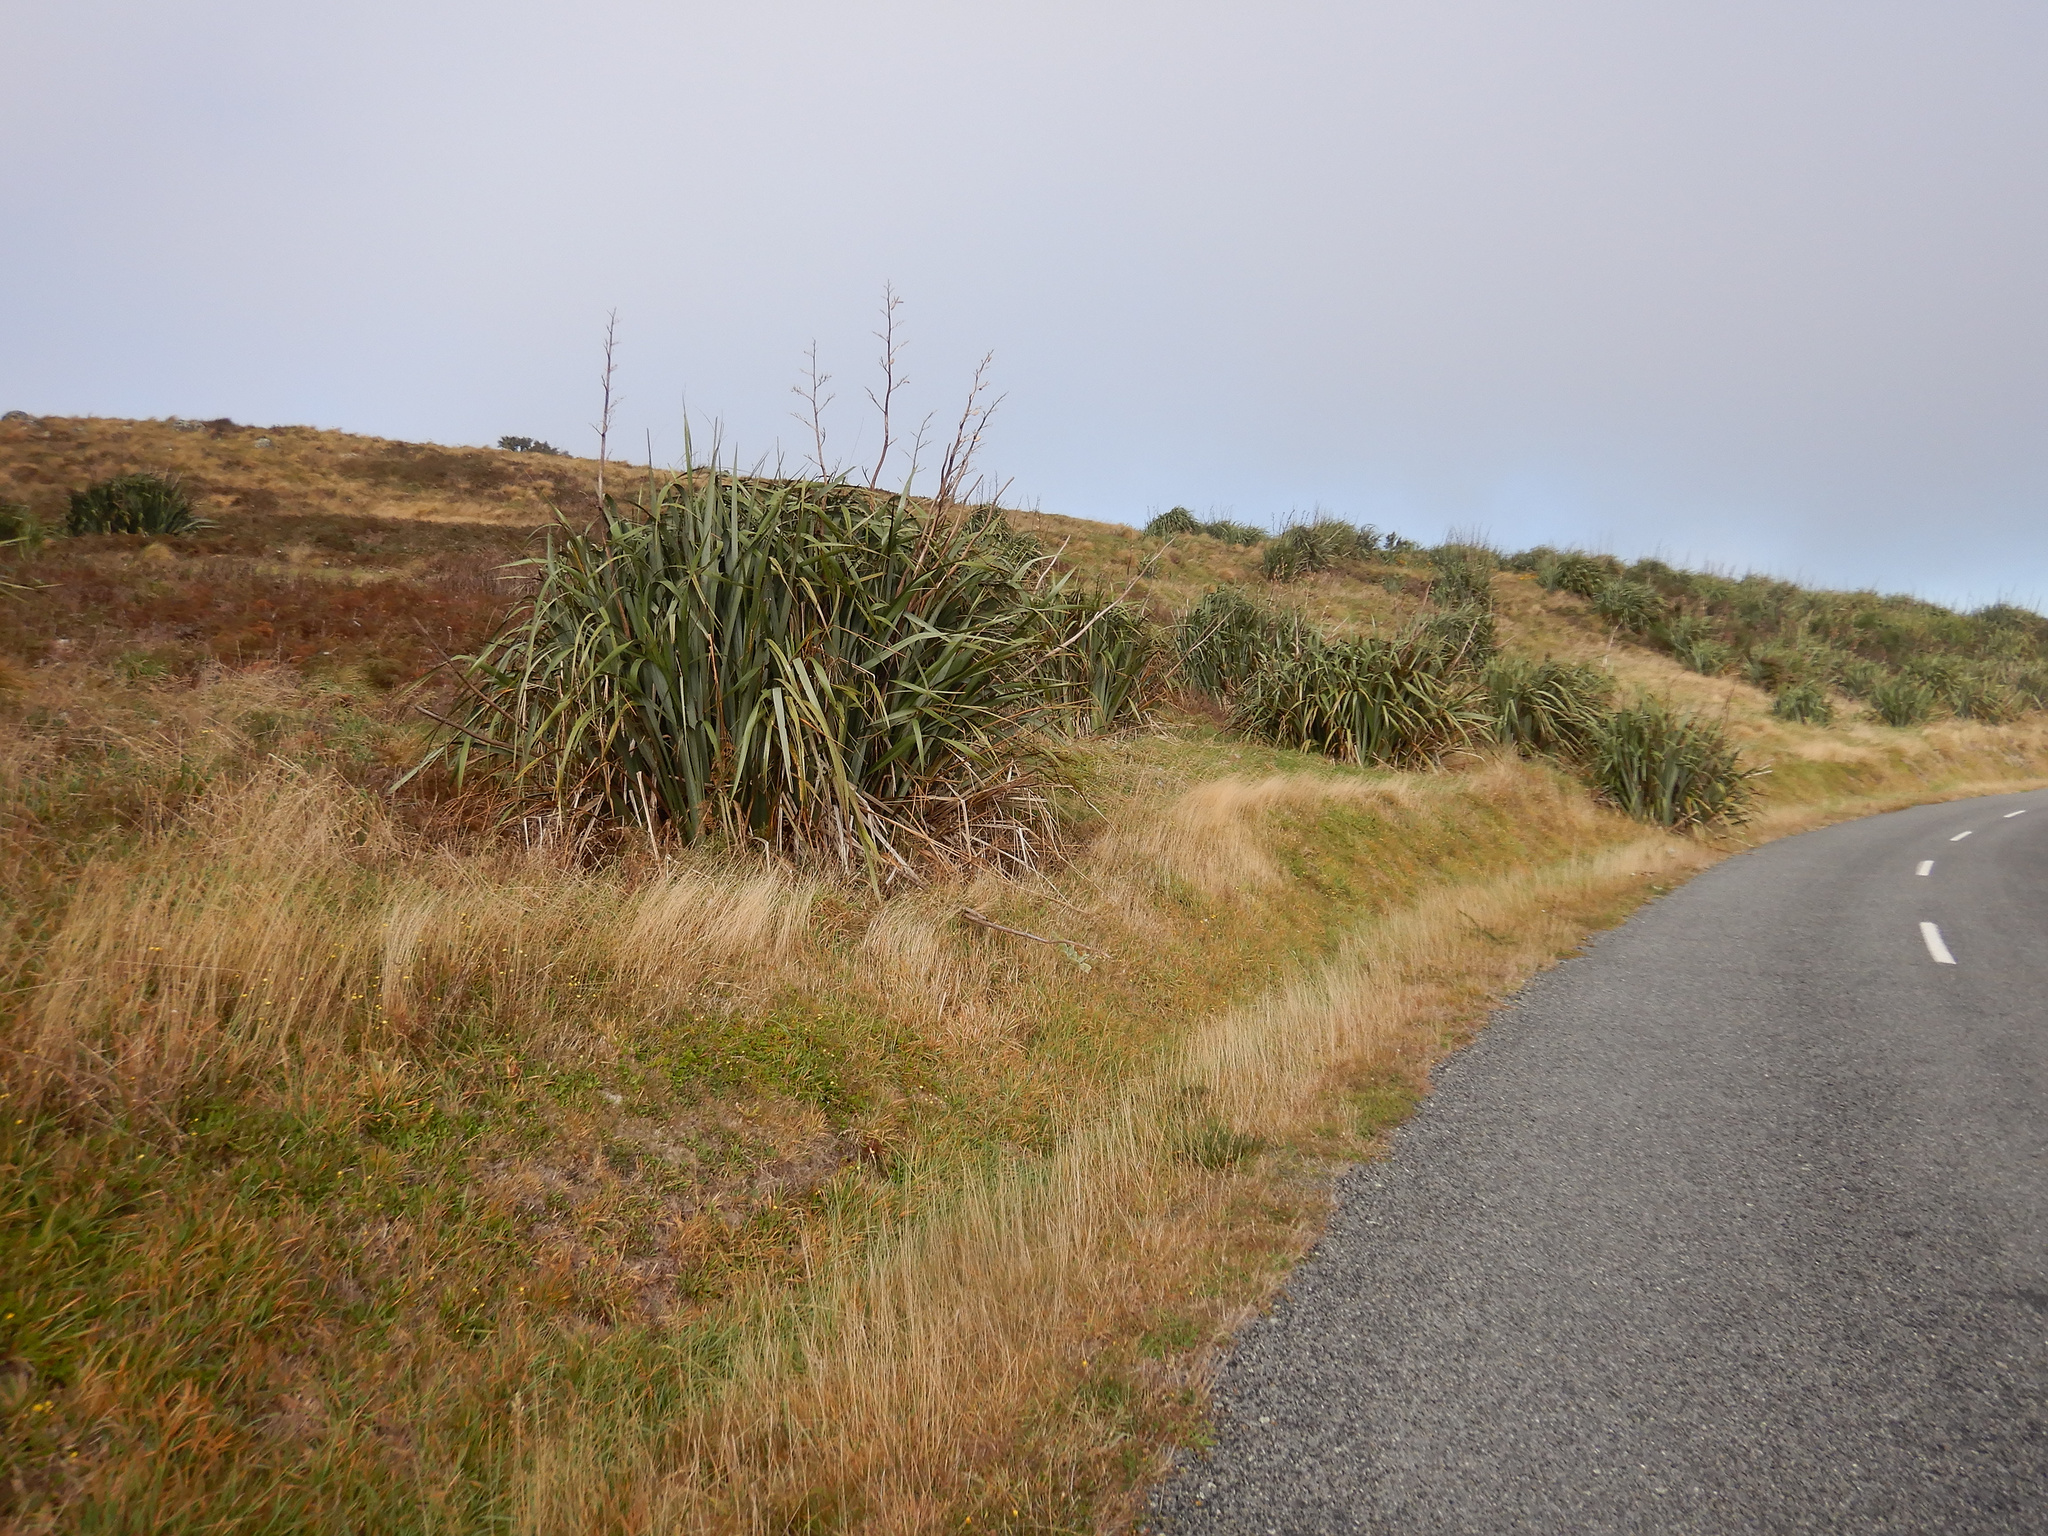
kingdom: Plantae
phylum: Tracheophyta
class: Liliopsida
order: Asparagales
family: Asphodelaceae
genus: Phormium
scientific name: Phormium tenax
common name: New zealand flax
